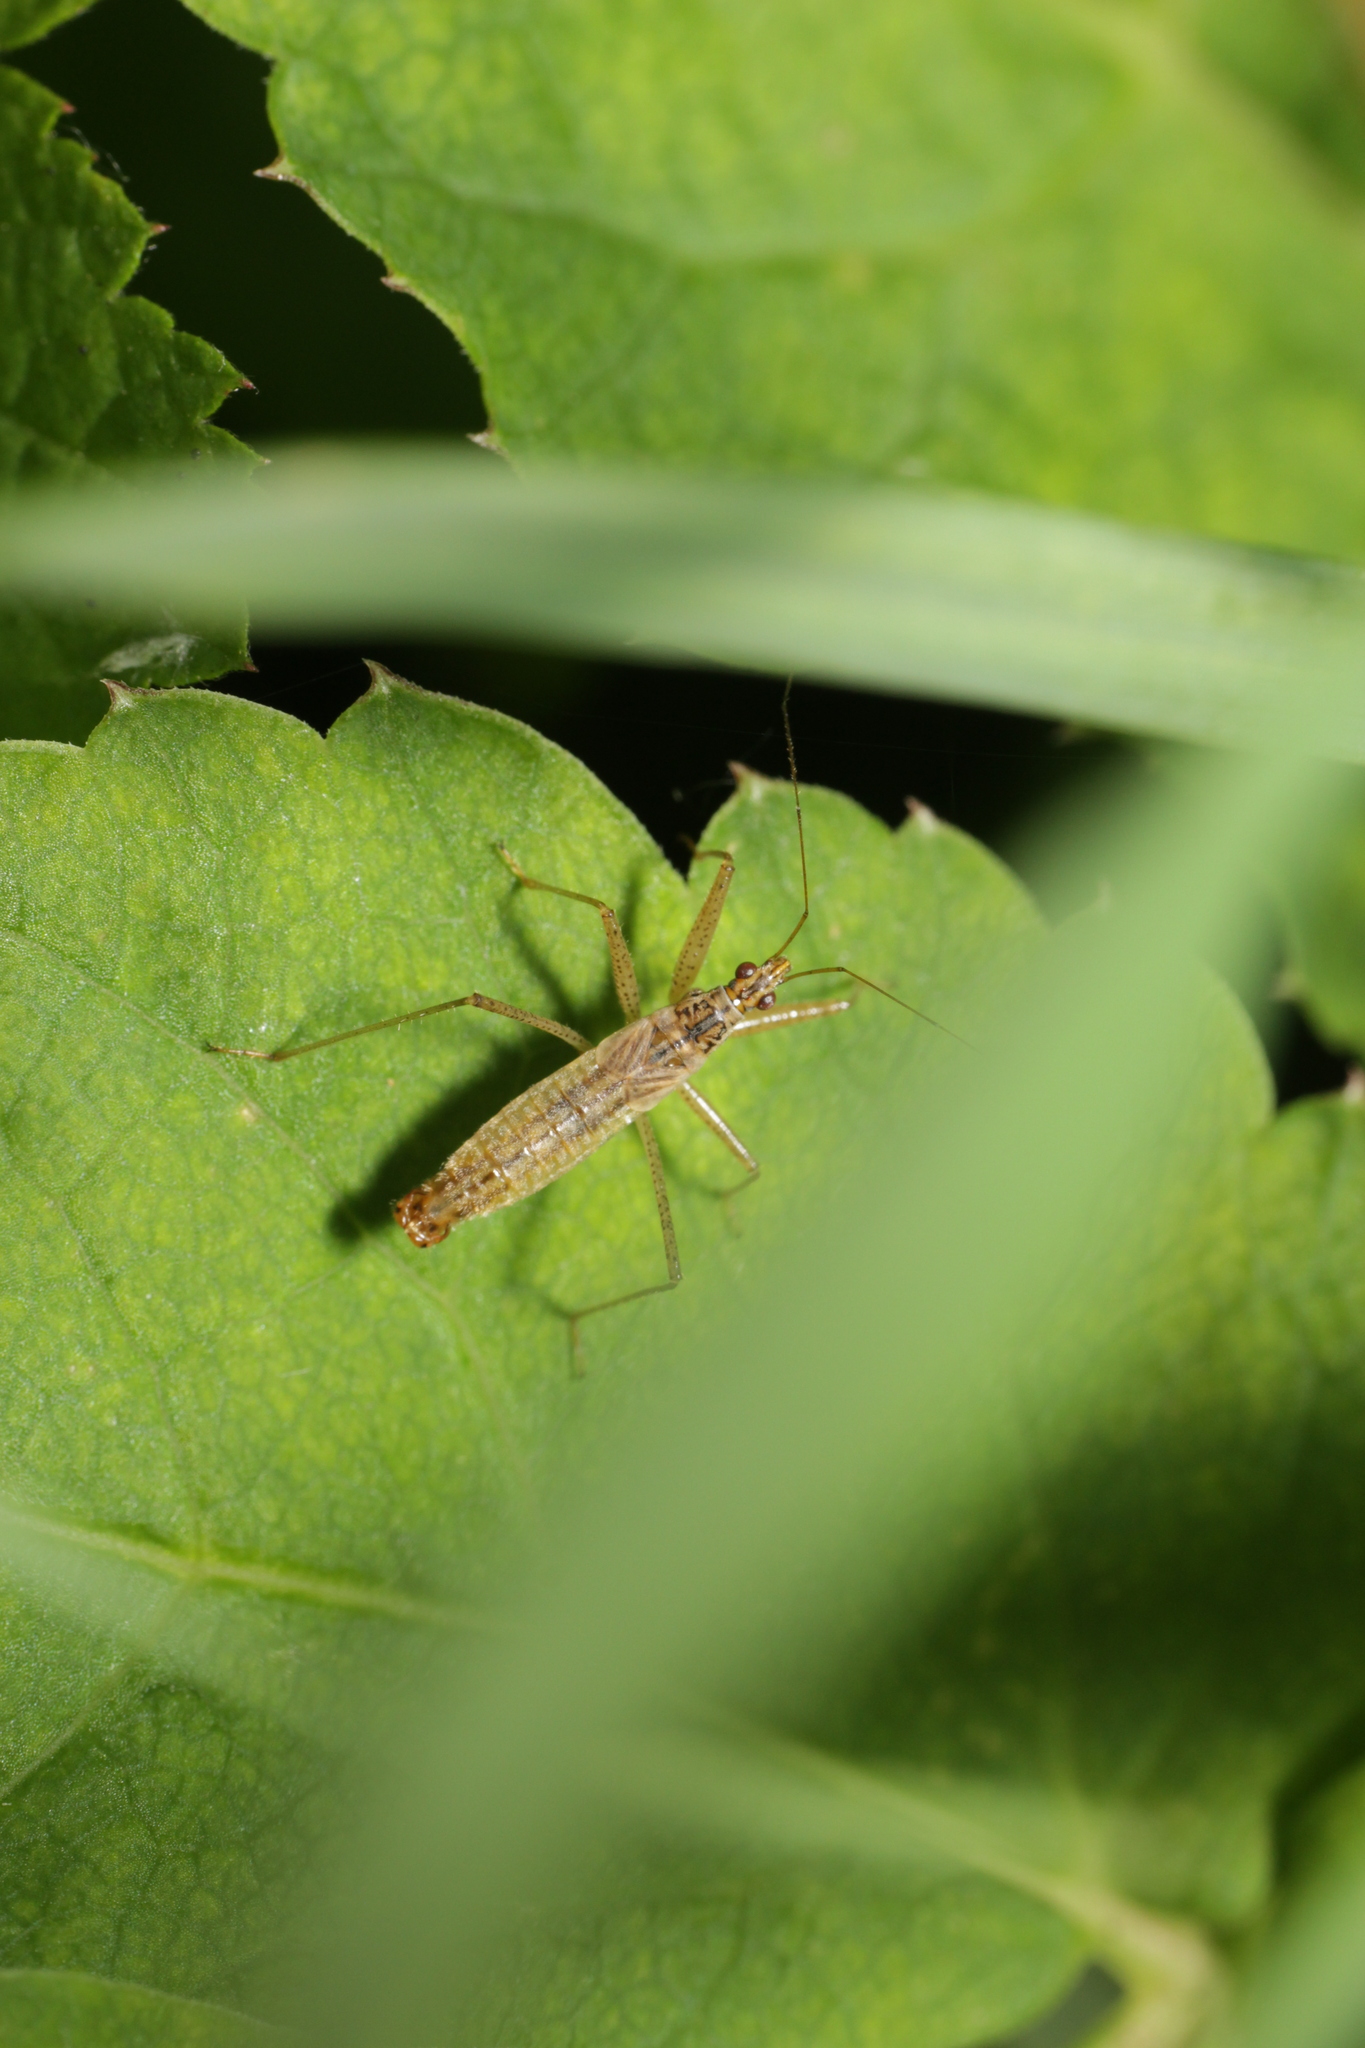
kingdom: Animalia
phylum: Arthropoda
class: Insecta
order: Hemiptera
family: Nabidae
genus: Nabis
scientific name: Nabis limbatus
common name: Marsh damselbug
